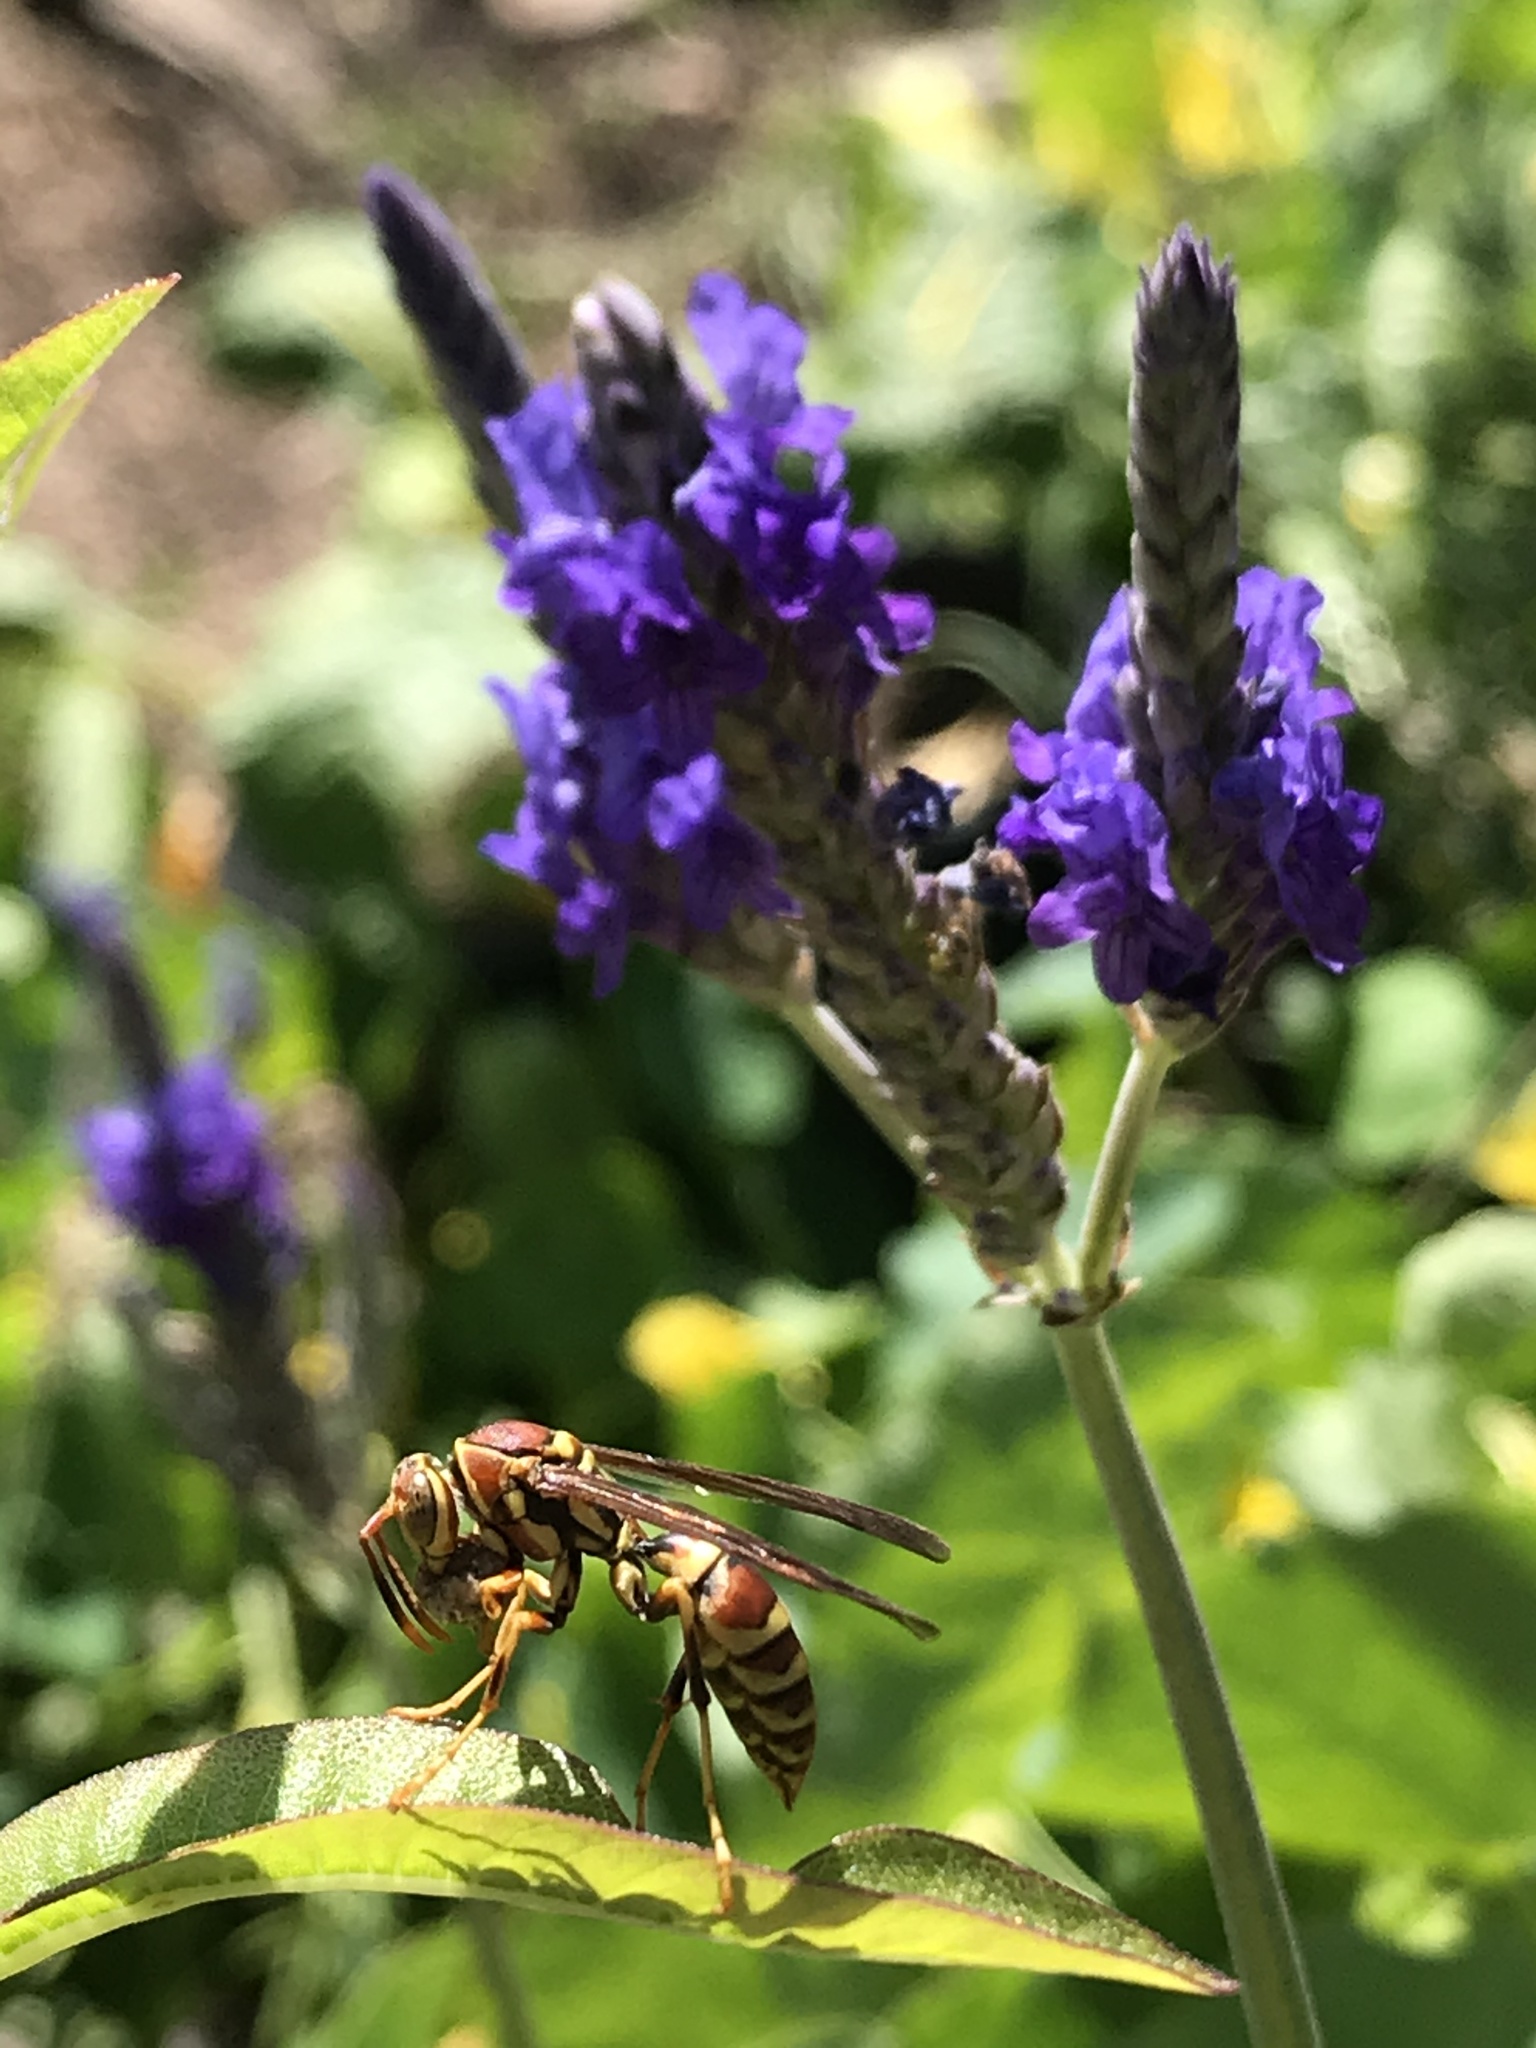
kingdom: Animalia
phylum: Arthropoda
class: Insecta
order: Hymenoptera
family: Eumenidae
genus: Polistes
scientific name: Polistes exclamans
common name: Paper wasp
